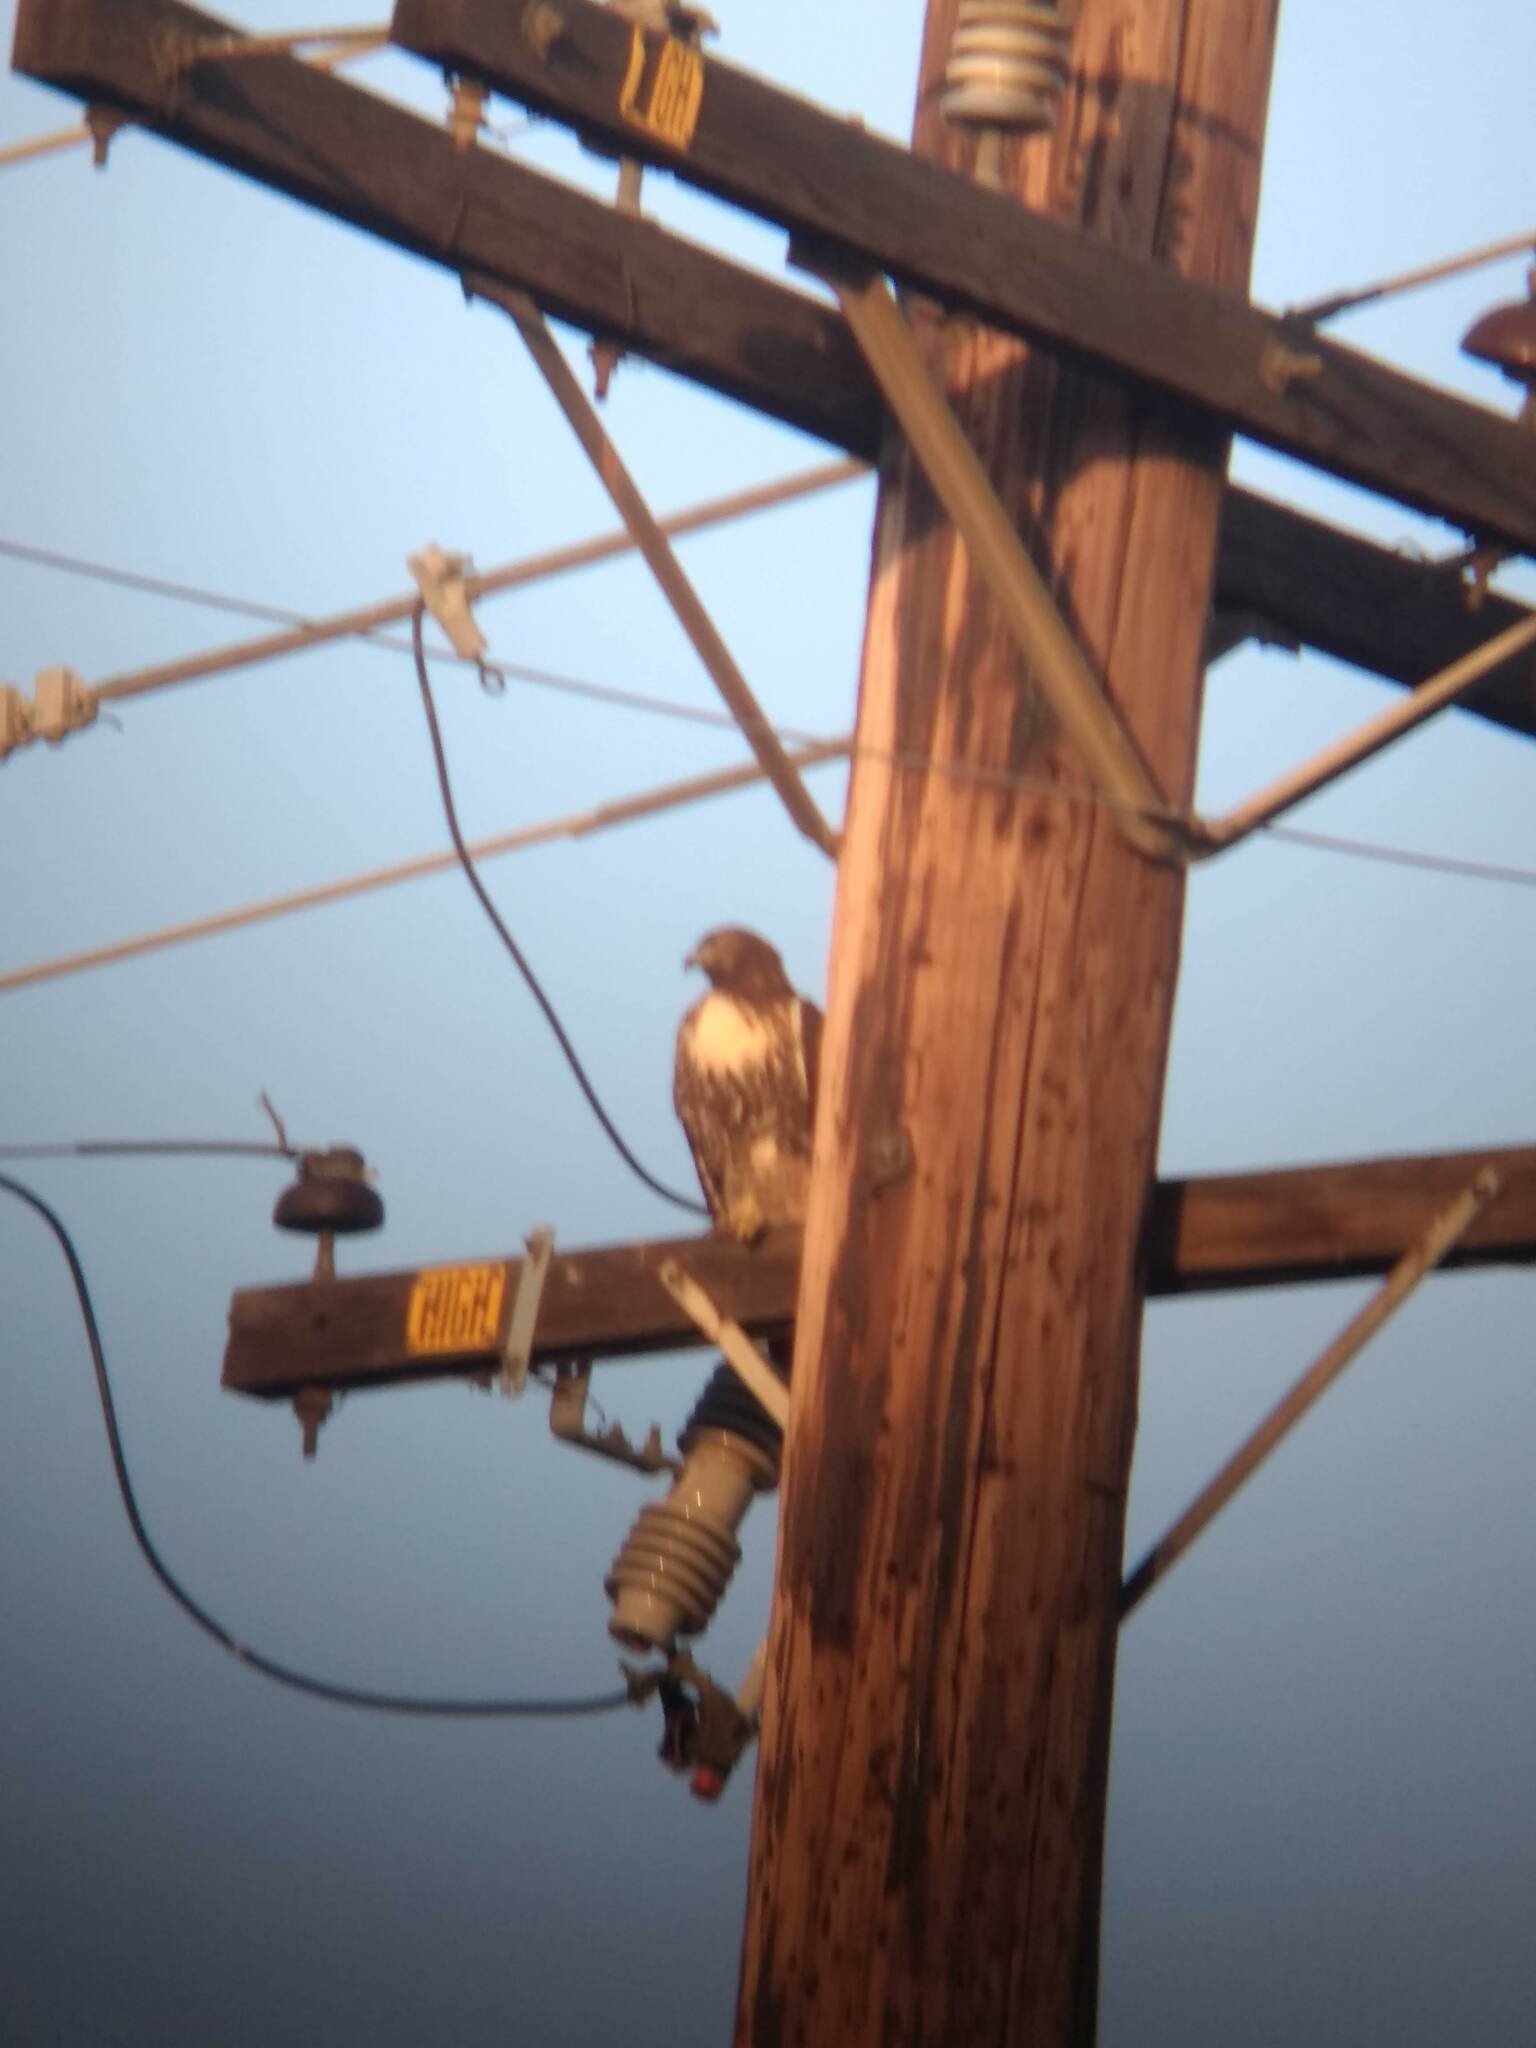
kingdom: Animalia
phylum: Chordata
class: Aves
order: Accipitriformes
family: Accipitridae
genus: Buteo
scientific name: Buteo jamaicensis
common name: Red-tailed hawk
